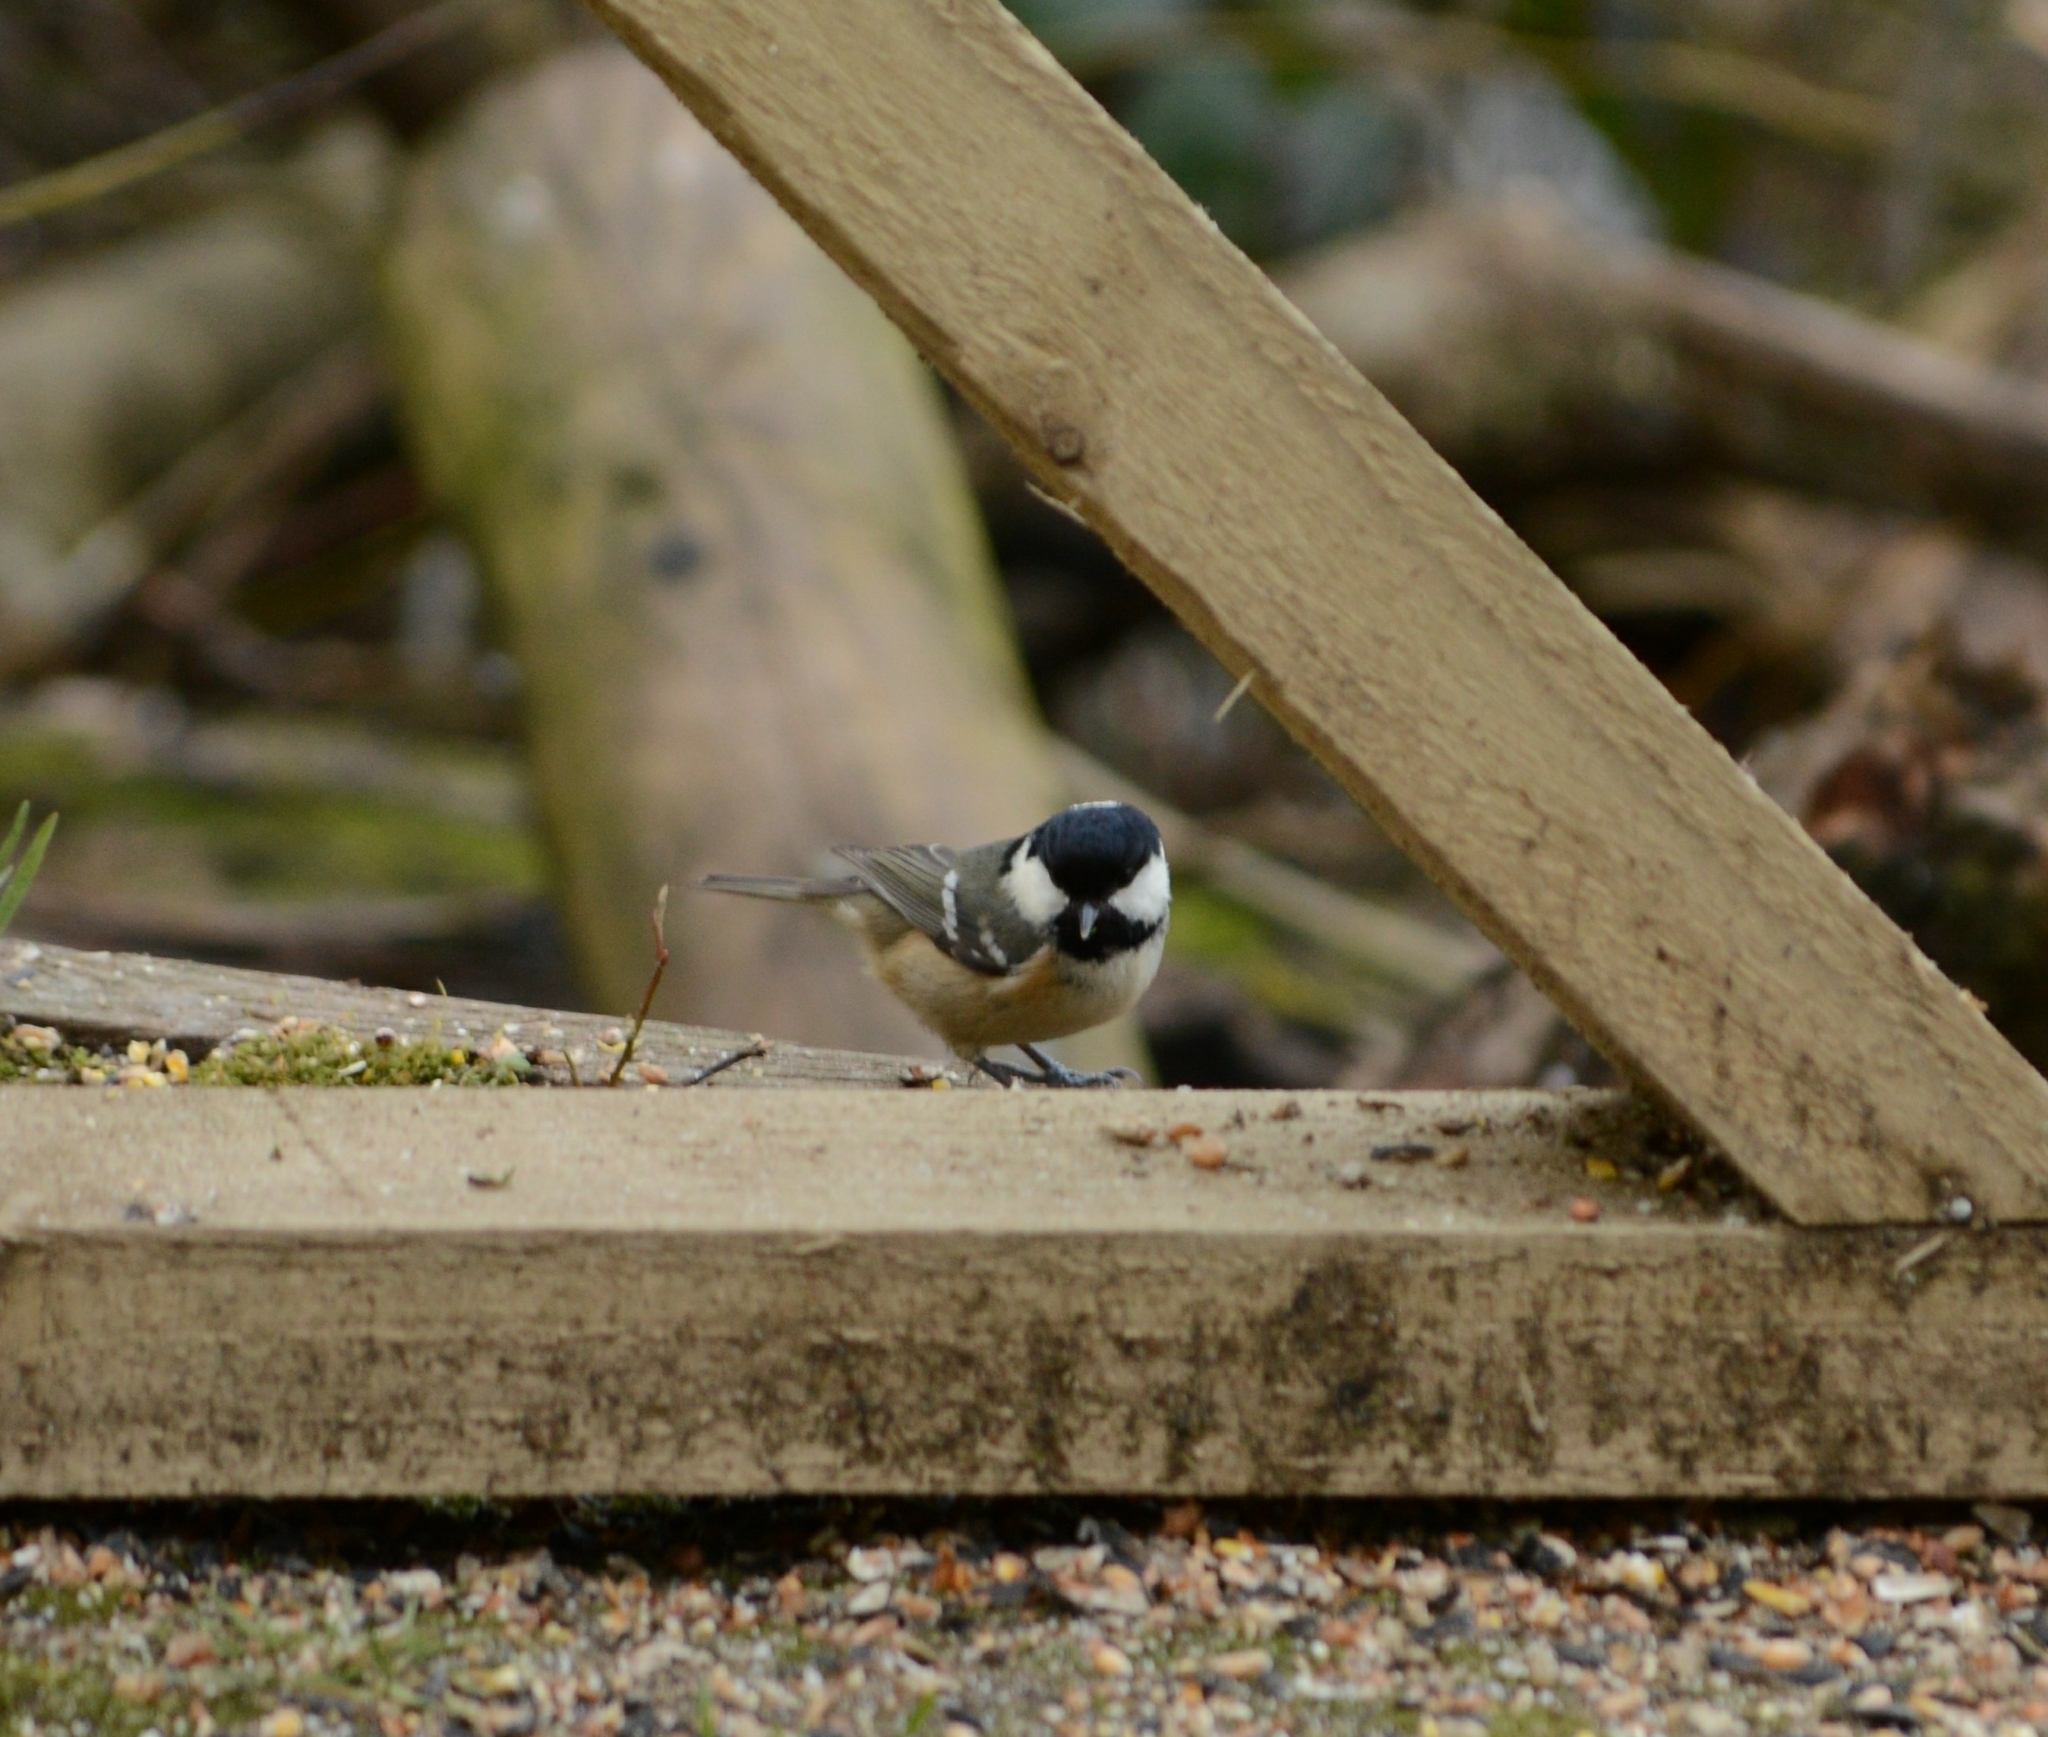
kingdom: Animalia
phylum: Chordata
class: Aves
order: Passeriformes
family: Paridae
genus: Periparus
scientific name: Periparus ater
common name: Coal tit
